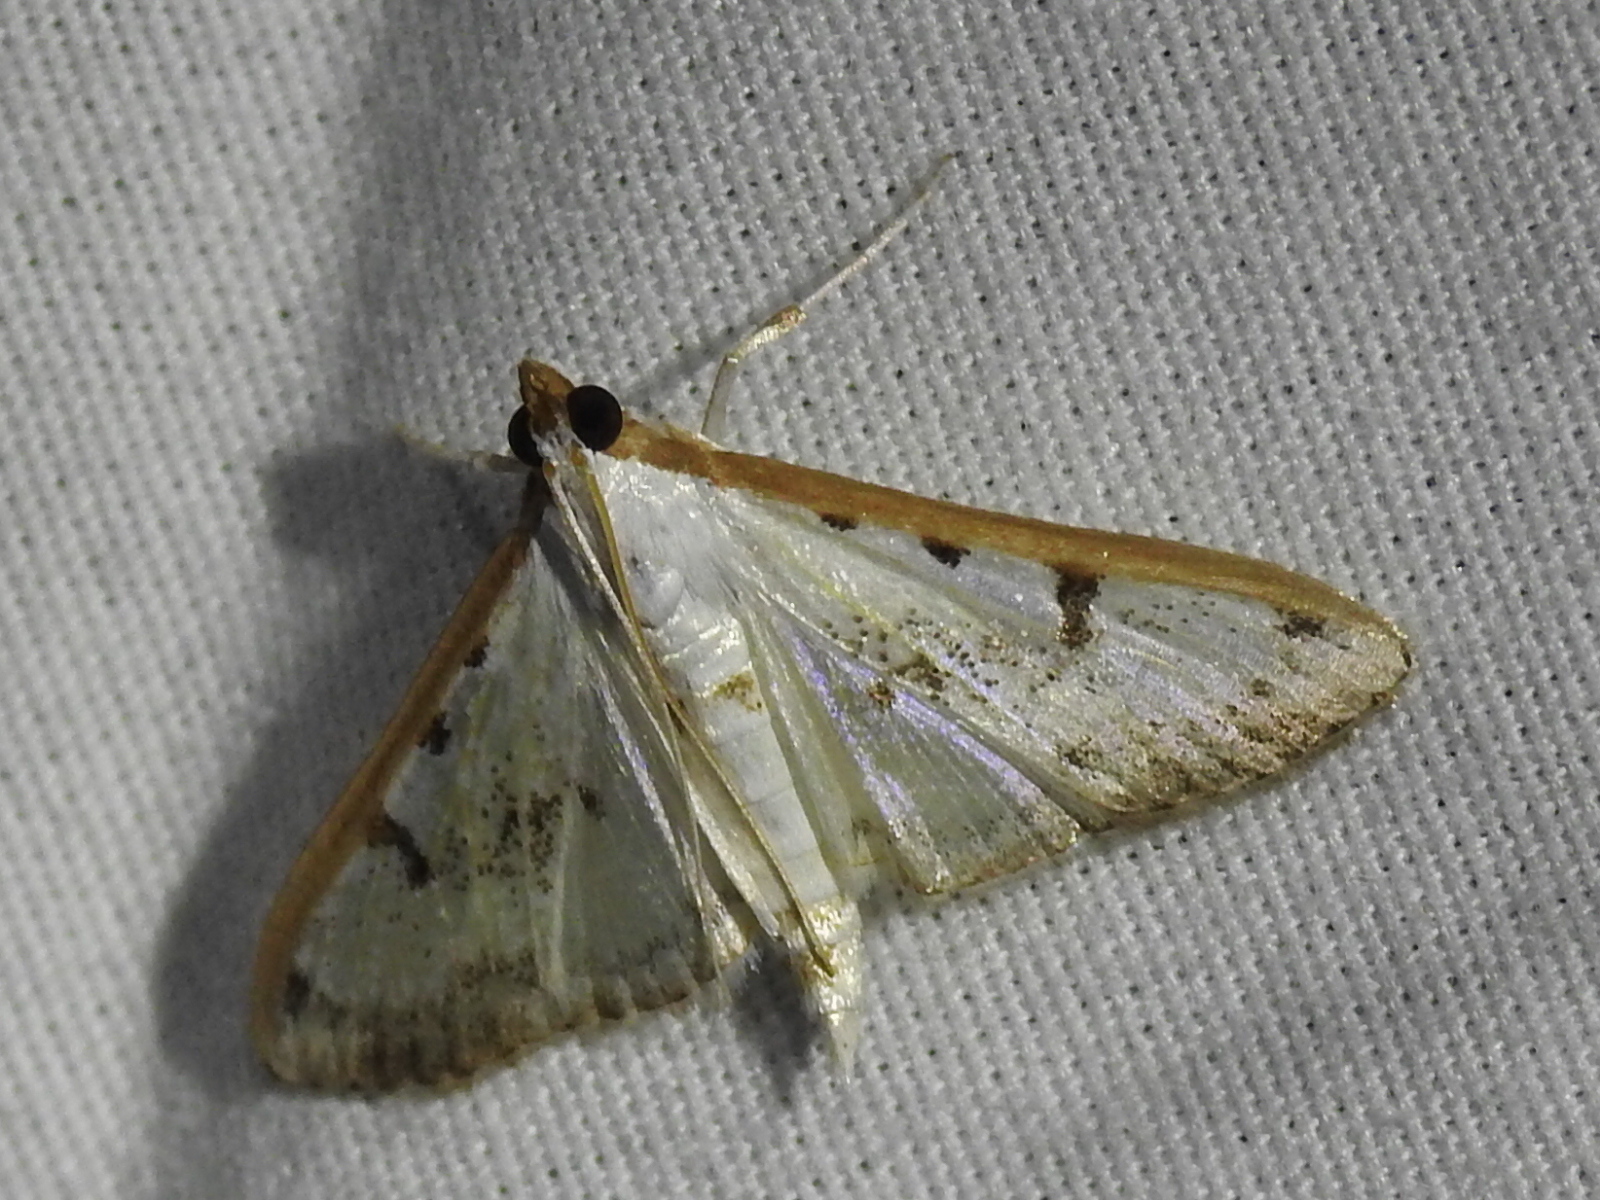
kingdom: Animalia
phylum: Arthropoda
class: Insecta
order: Lepidoptera
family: Crambidae
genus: Palpita
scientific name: Palpita gracilalis
